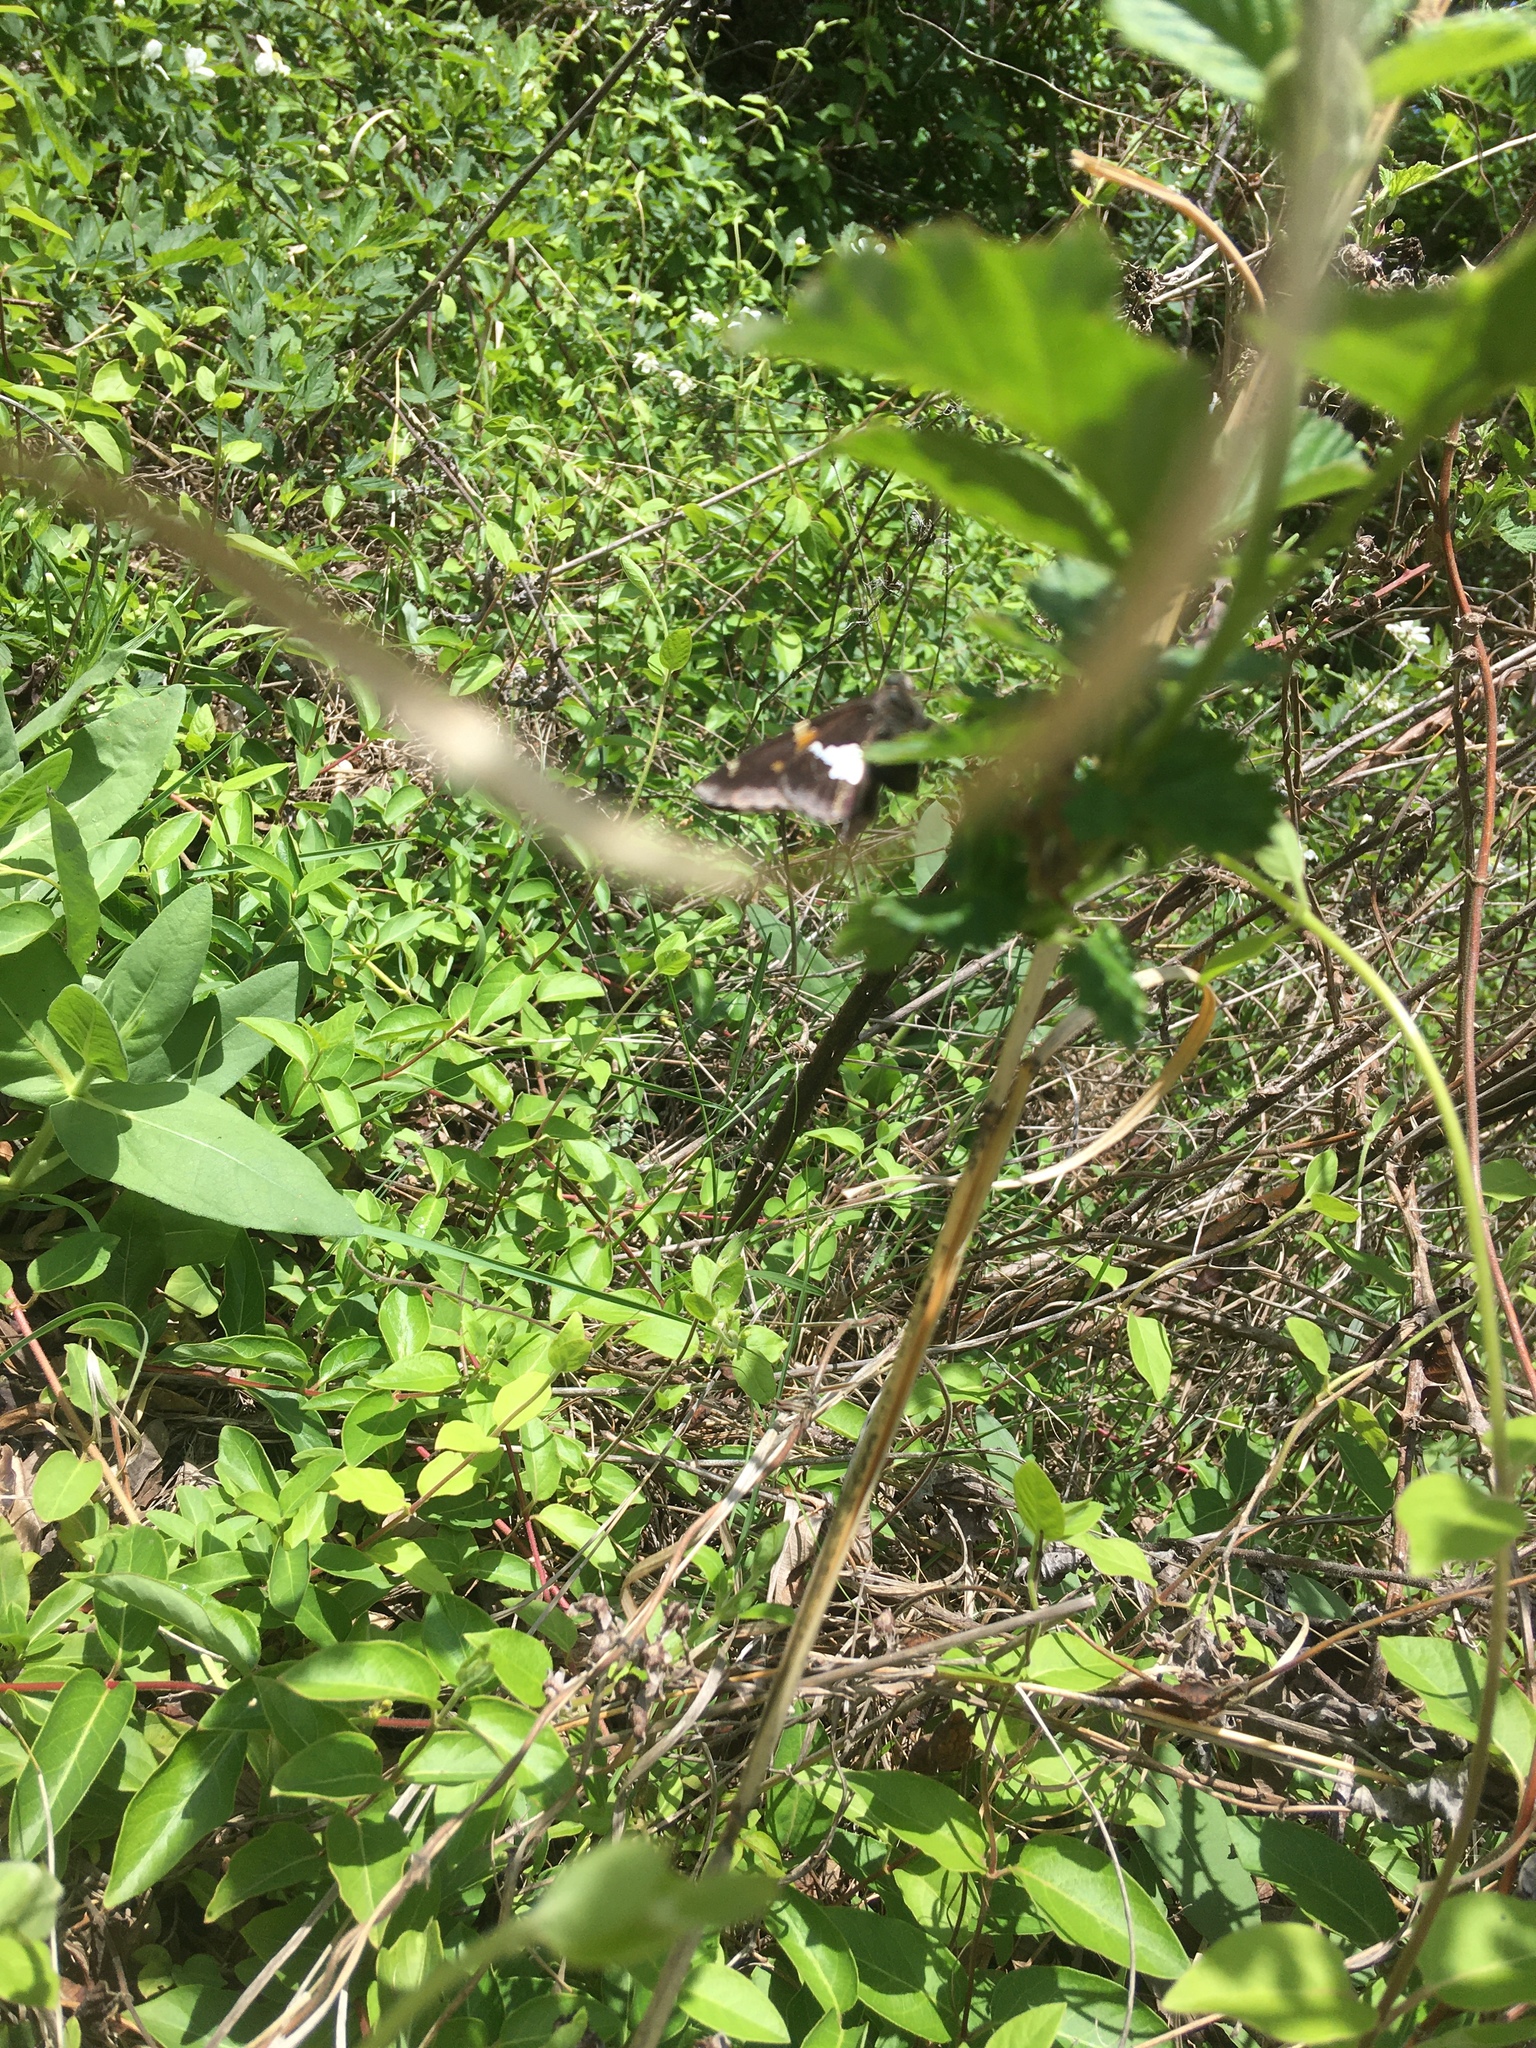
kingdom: Animalia
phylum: Arthropoda
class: Insecta
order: Lepidoptera
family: Hesperiidae
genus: Epargyreus
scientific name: Epargyreus clarus
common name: Silver-spotted skipper
